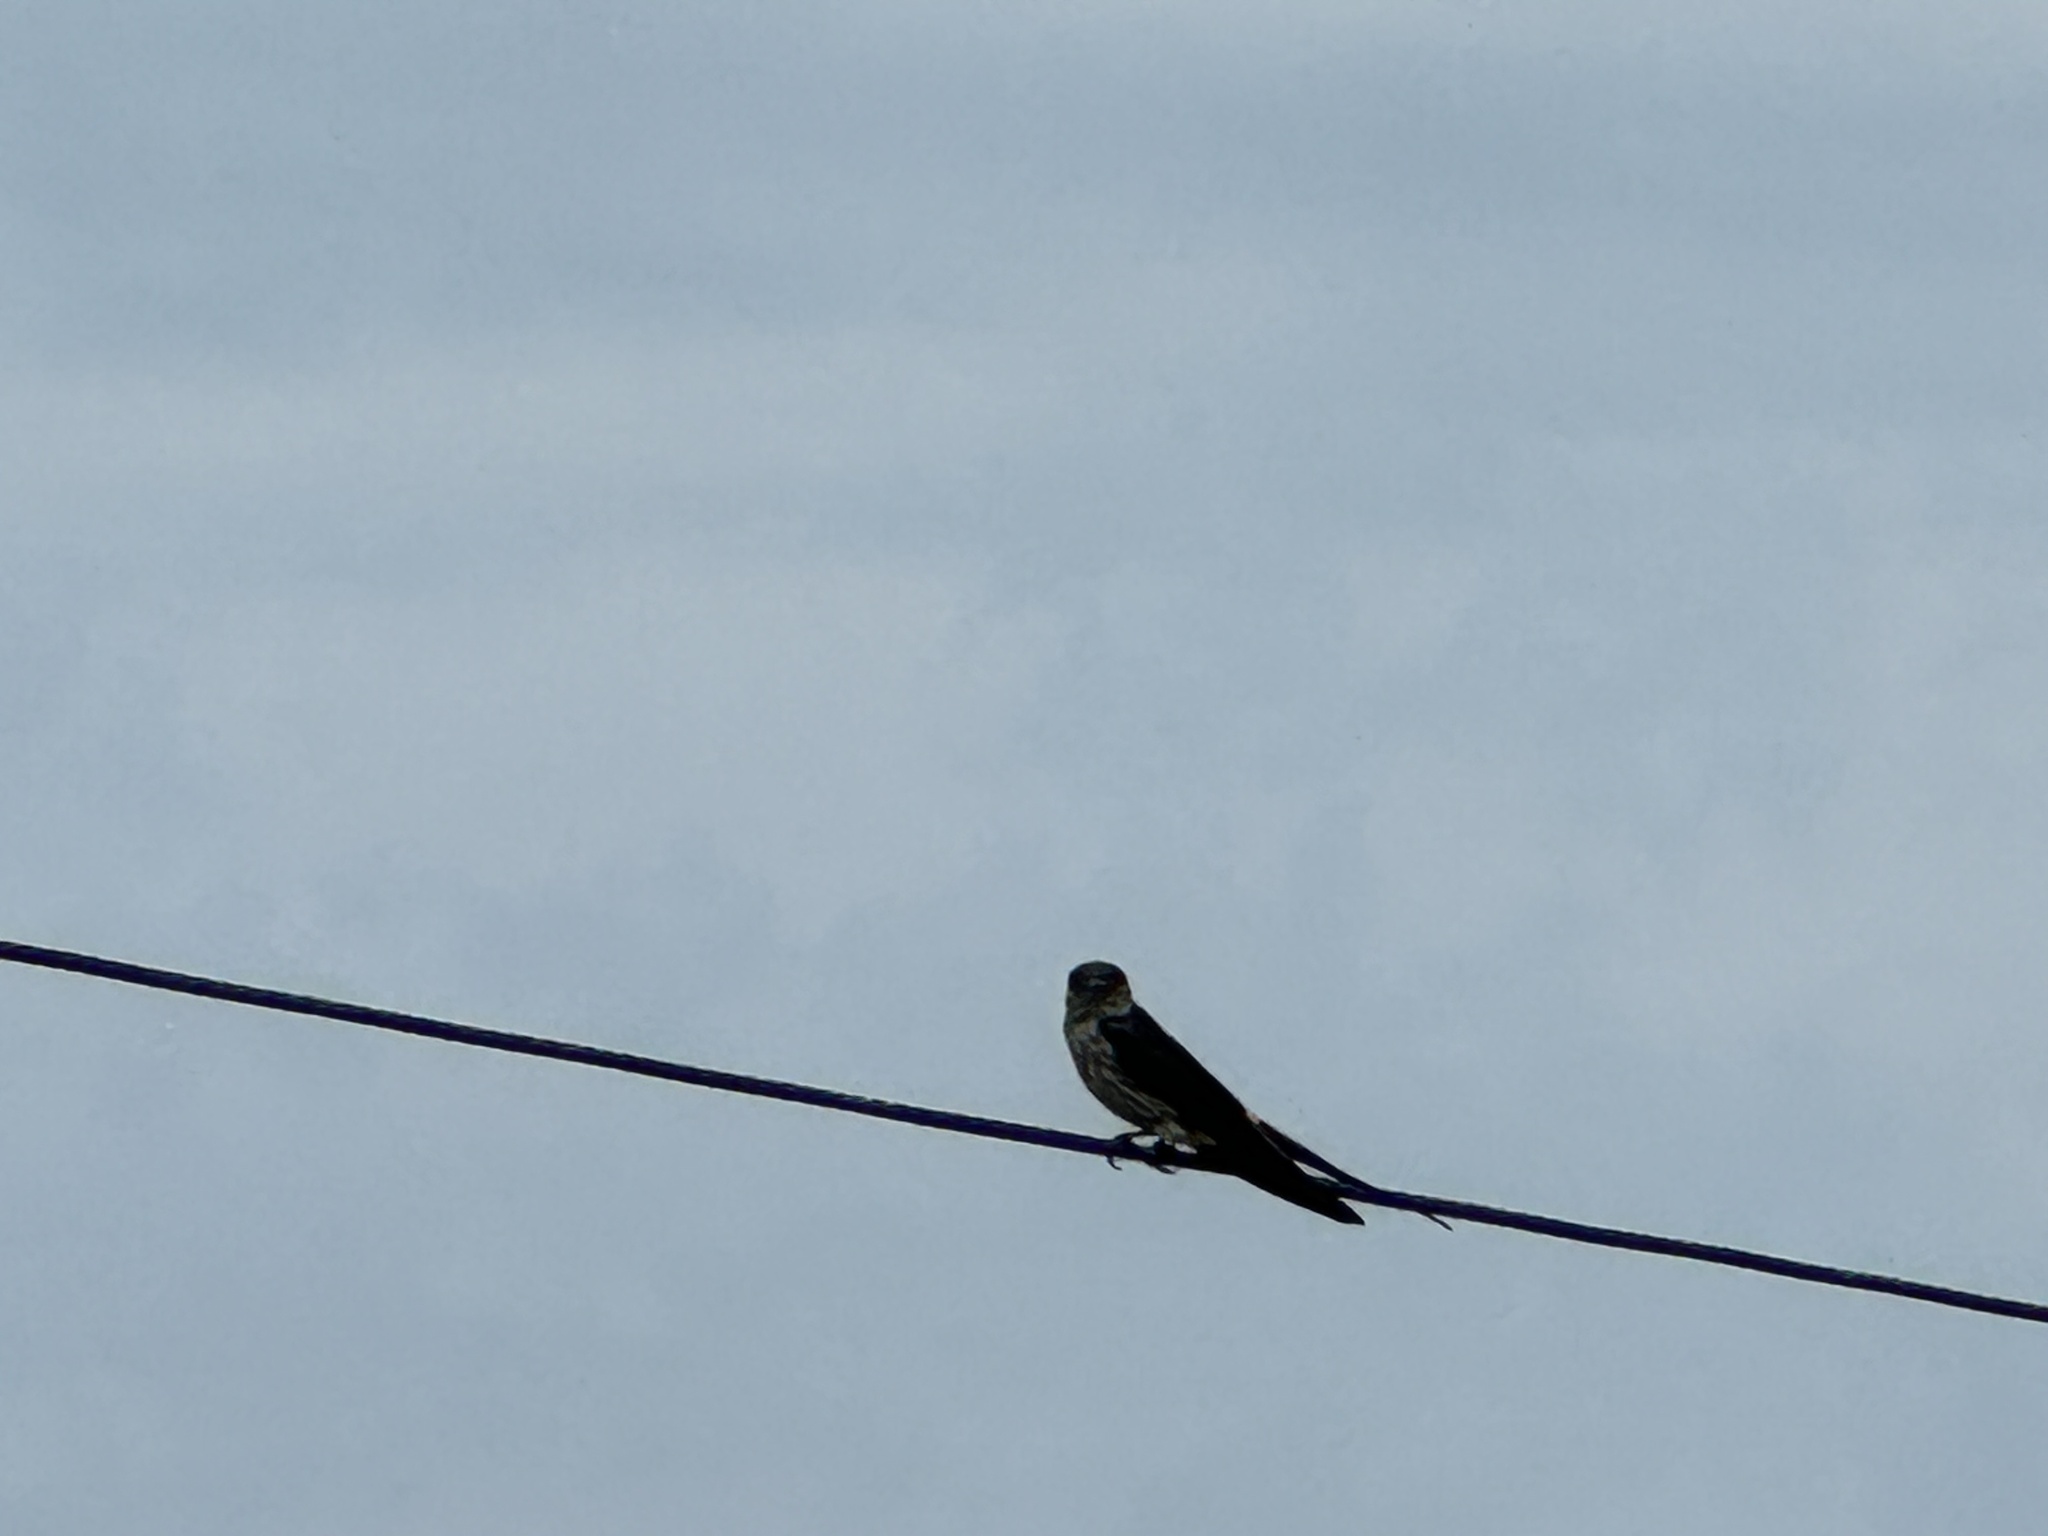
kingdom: Animalia
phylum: Chordata
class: Aves
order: Passeriformes
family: Hirundinidae
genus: Cecropis
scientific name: Cecropis striolata
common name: Striated swallow
